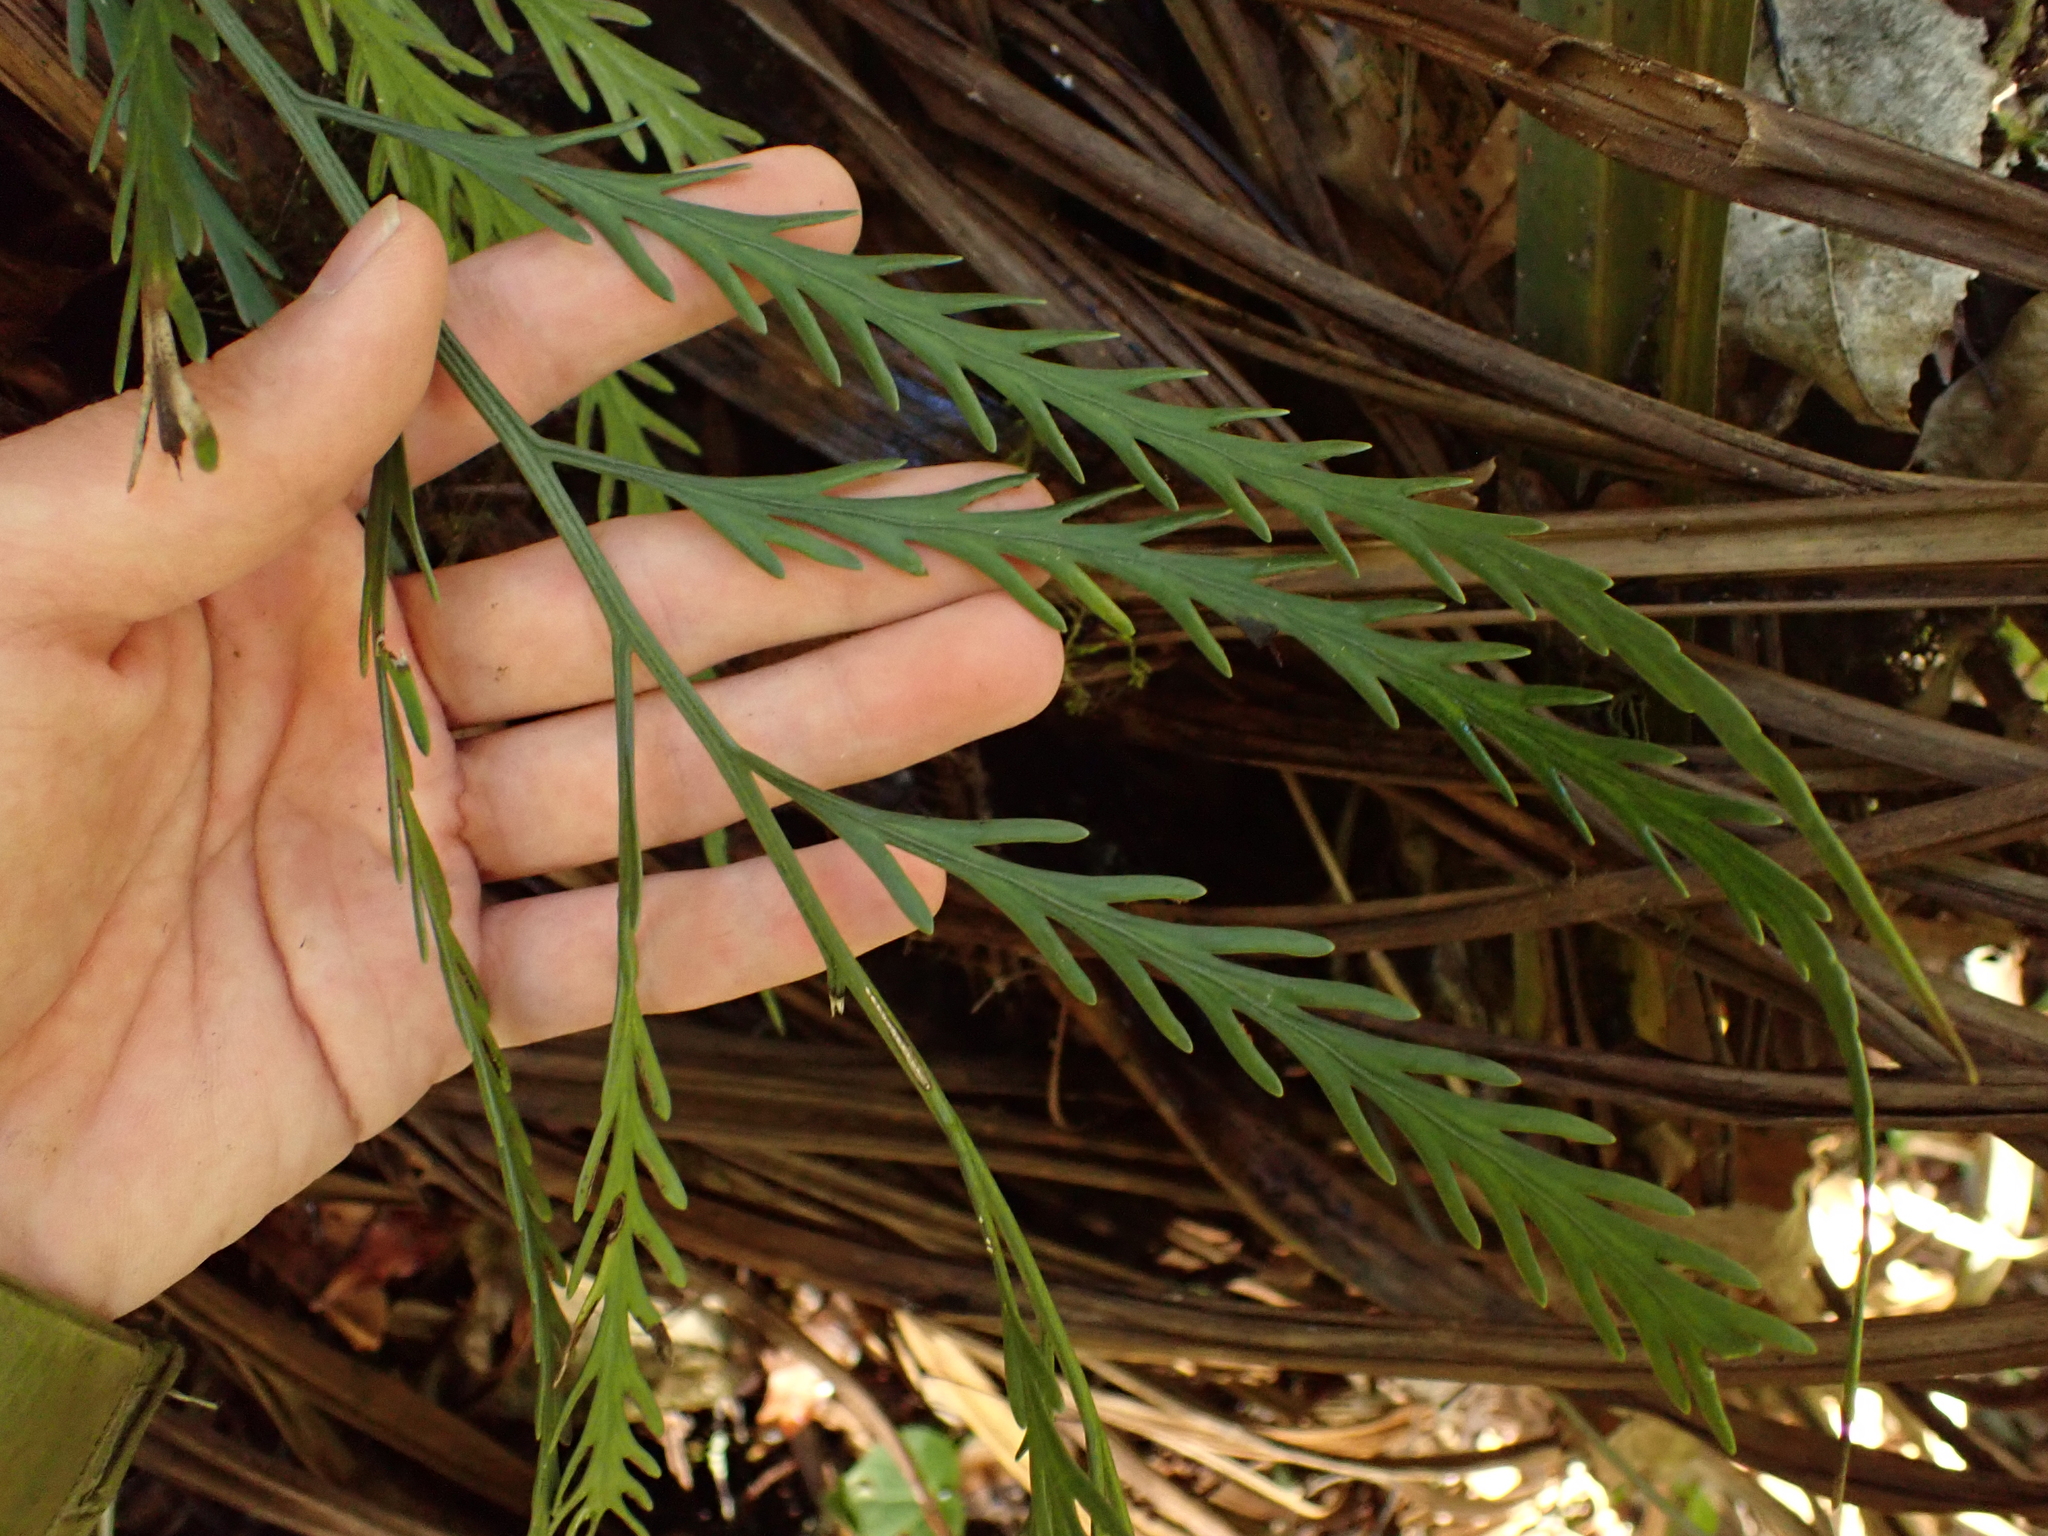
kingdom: Plantae
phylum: Tracheophyta
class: Polypodiopsida
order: Polypodiales
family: Aspleniaceae
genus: Asplenium
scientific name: Asplenium flaccidum
